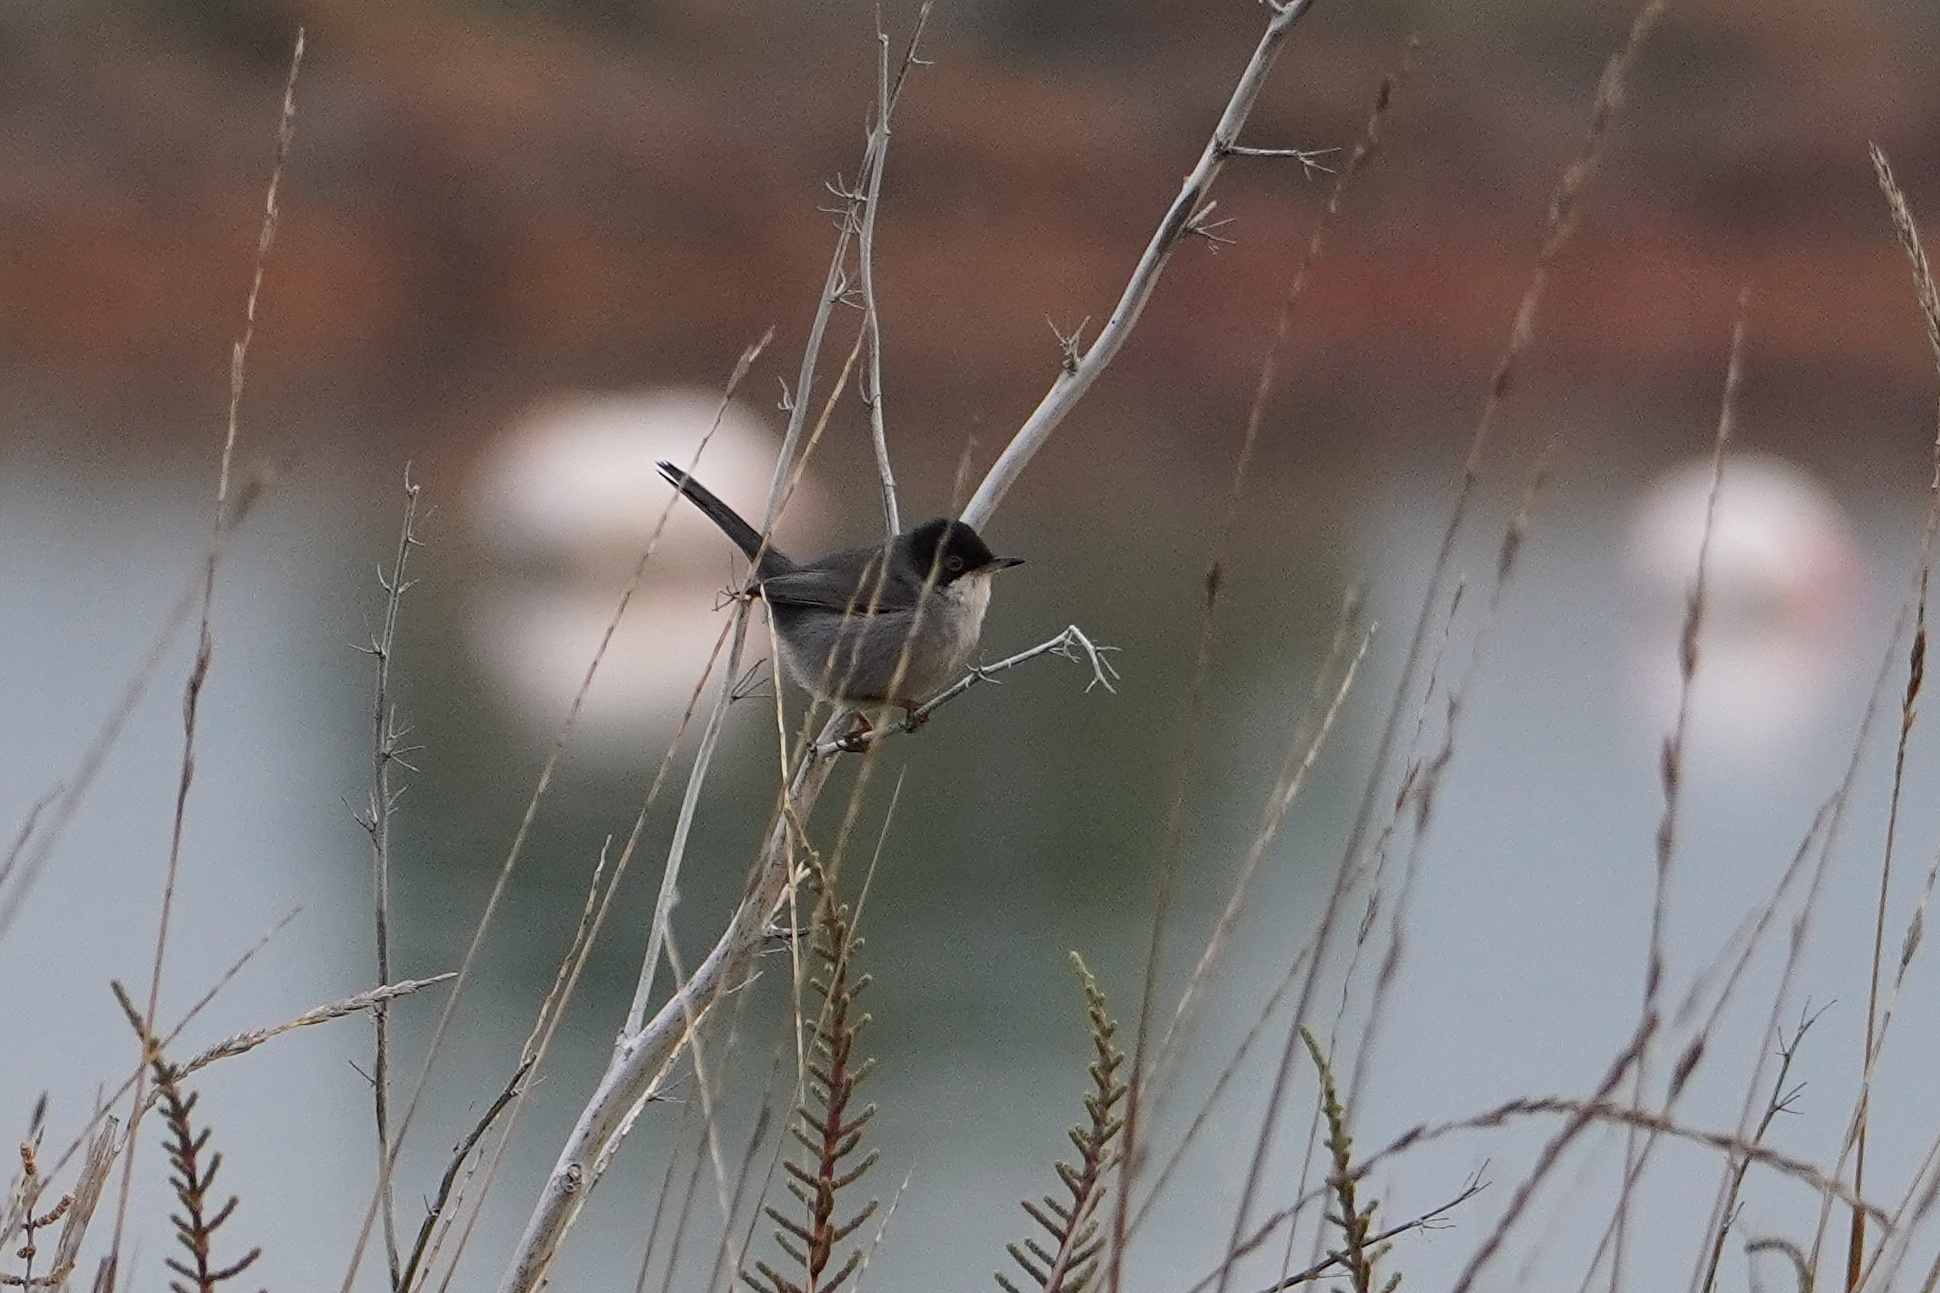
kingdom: Animalia
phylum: Chordata
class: Aves
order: Passeriformes
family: Sylviidae
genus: Curruca
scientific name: Curruca melanocephala
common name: Sardinian warbler
